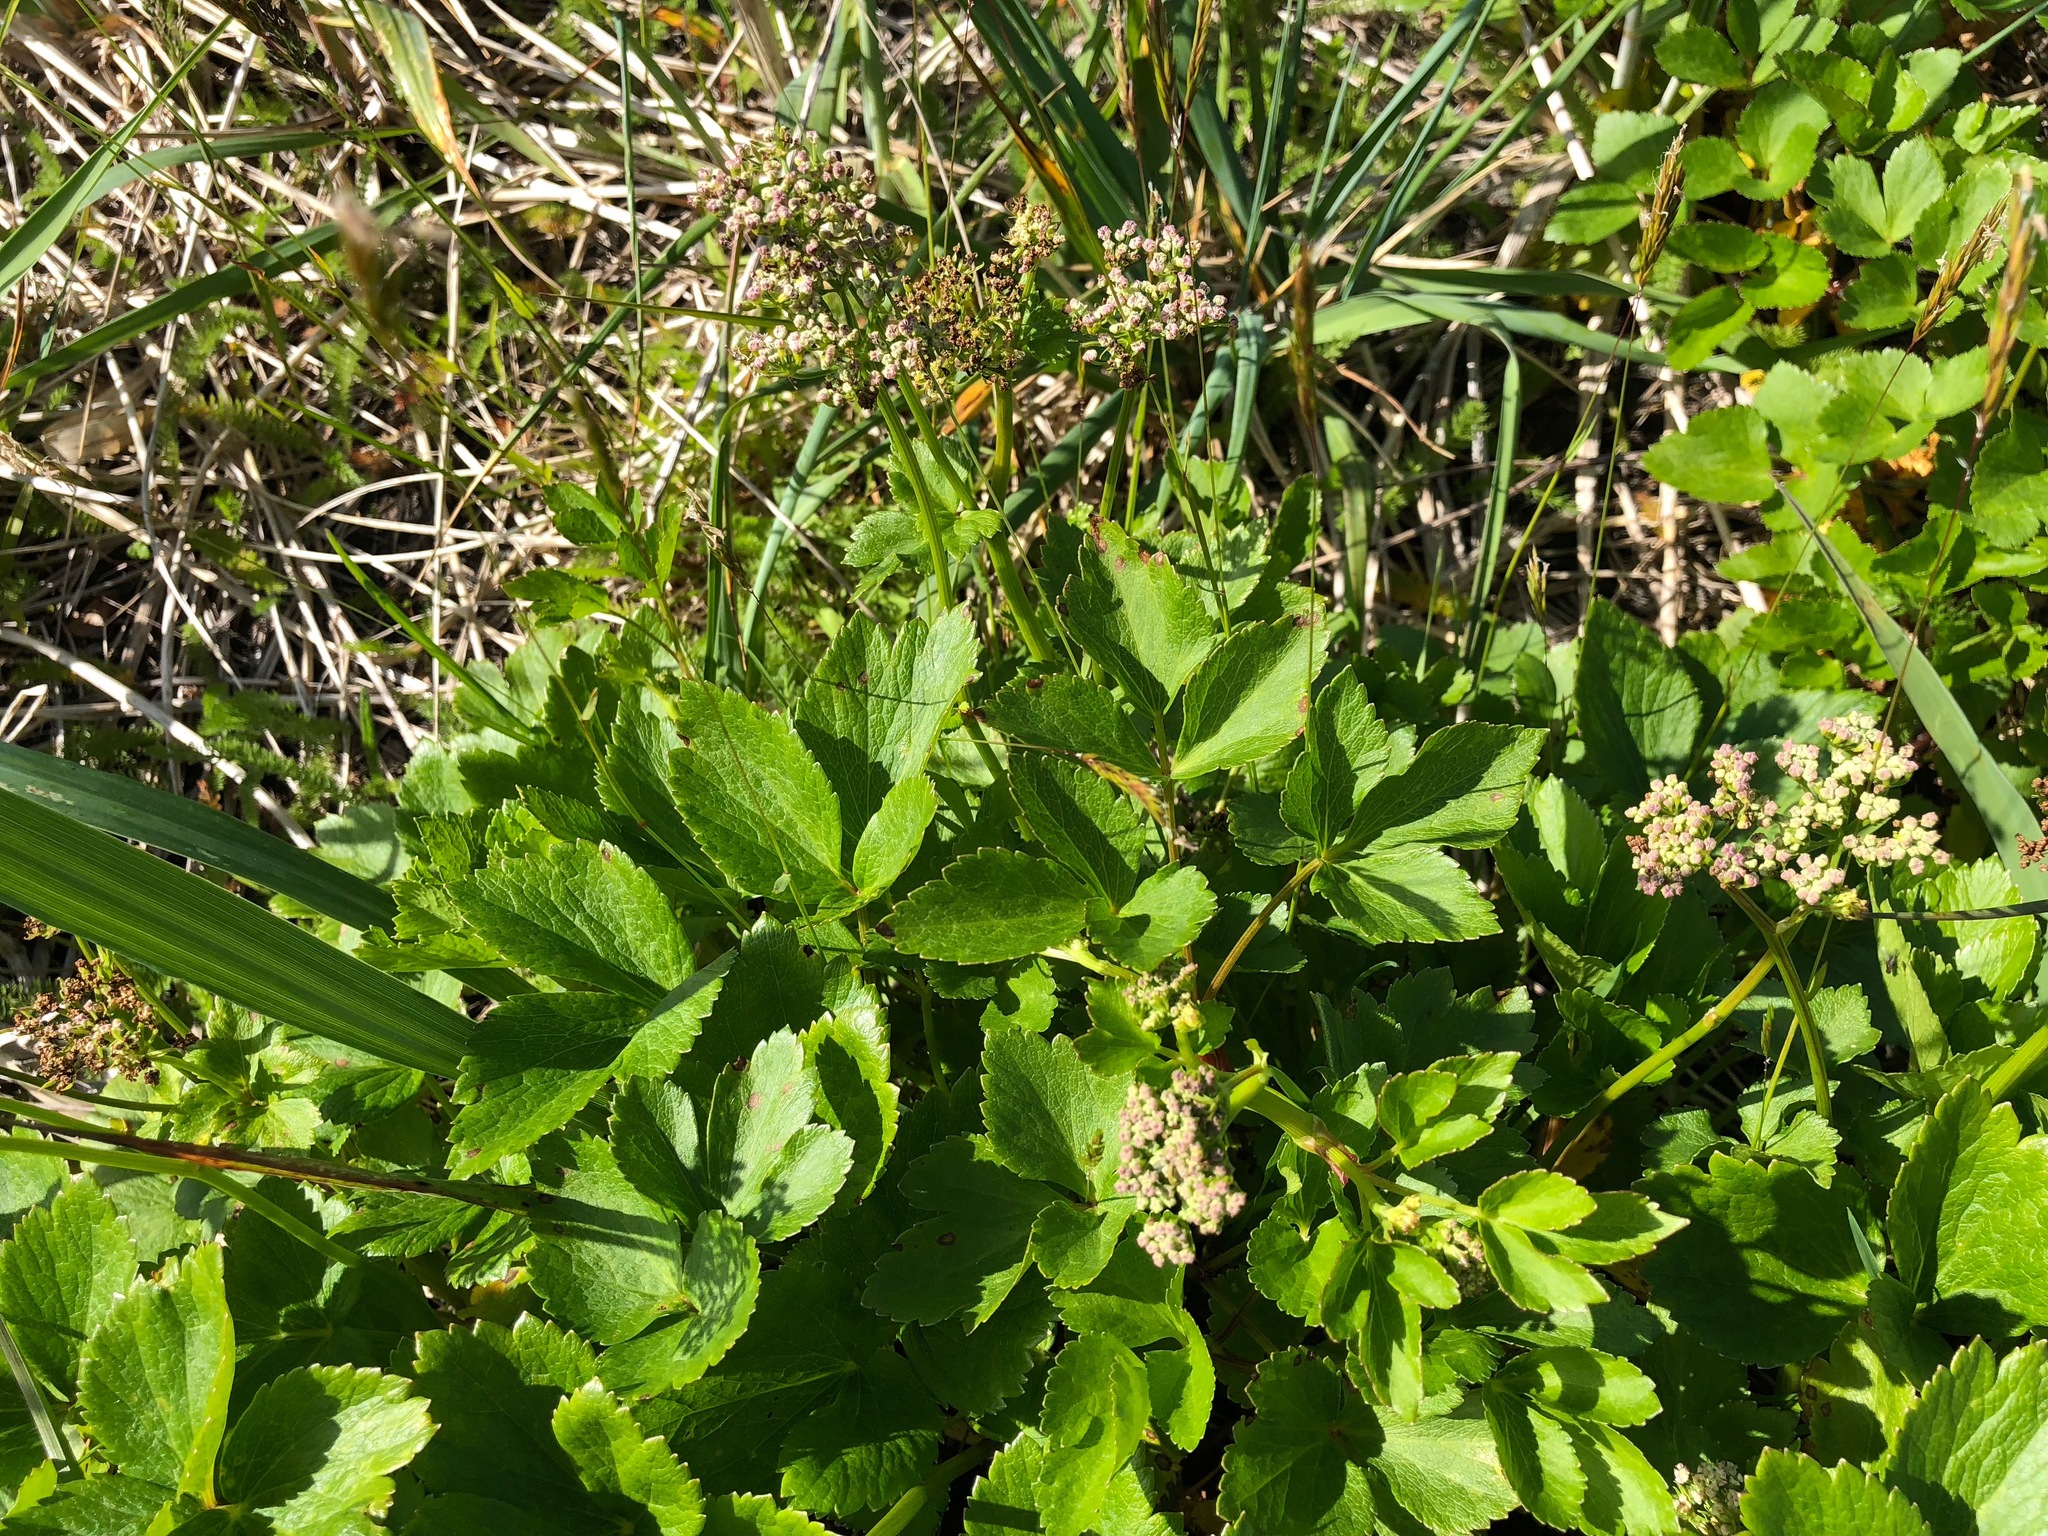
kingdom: Plantae
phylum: Tracheophyta
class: Magnoliopsida
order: Apiales
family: Apiaceae
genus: Ligusticum
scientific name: Ligusticum scothicum
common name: Beach lovage
